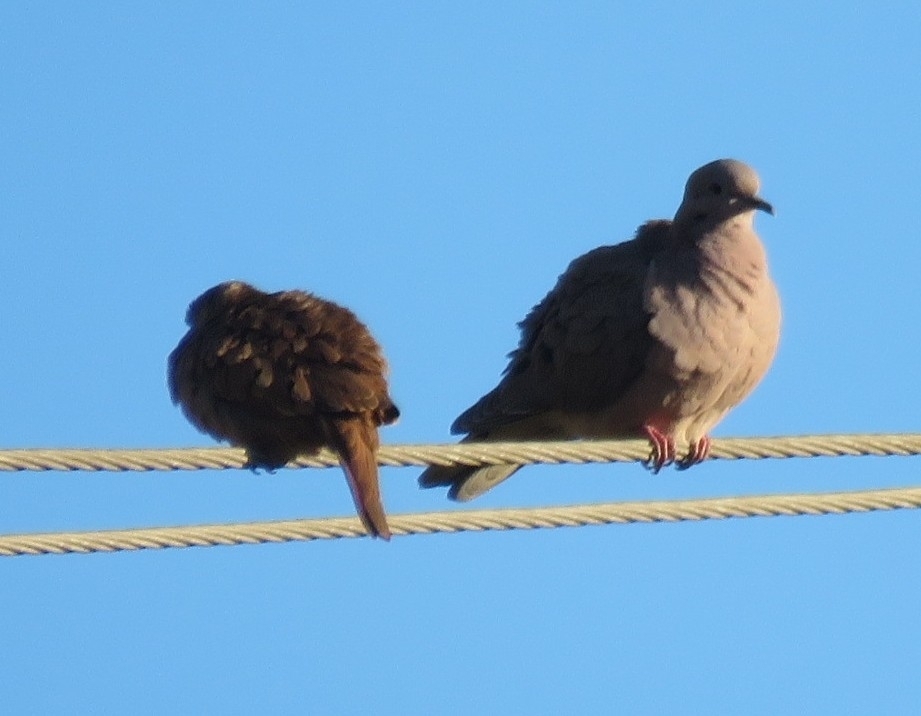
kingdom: Animalia
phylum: Chordata
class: Aves
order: Columbiformes
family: Columbidae
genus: Zenaida
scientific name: Zenaida auriculata
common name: Eared dove
